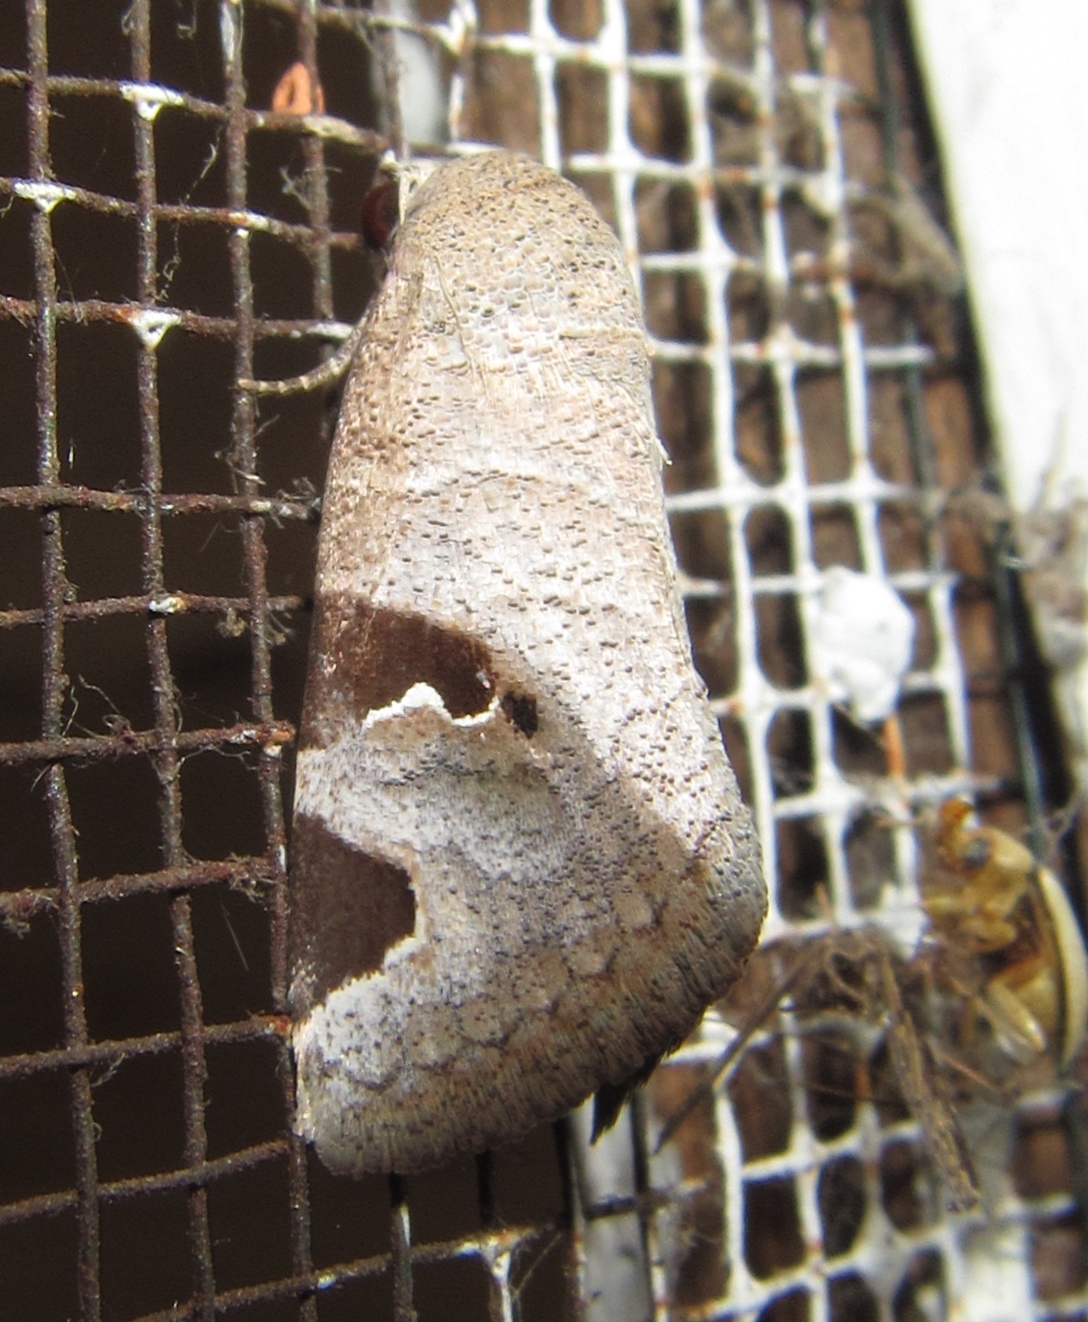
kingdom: Animalia
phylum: Arthropoda
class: Insecta
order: Lepidoptera
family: Erebidae
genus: Brevipecten
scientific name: Brevipecten cornuta
